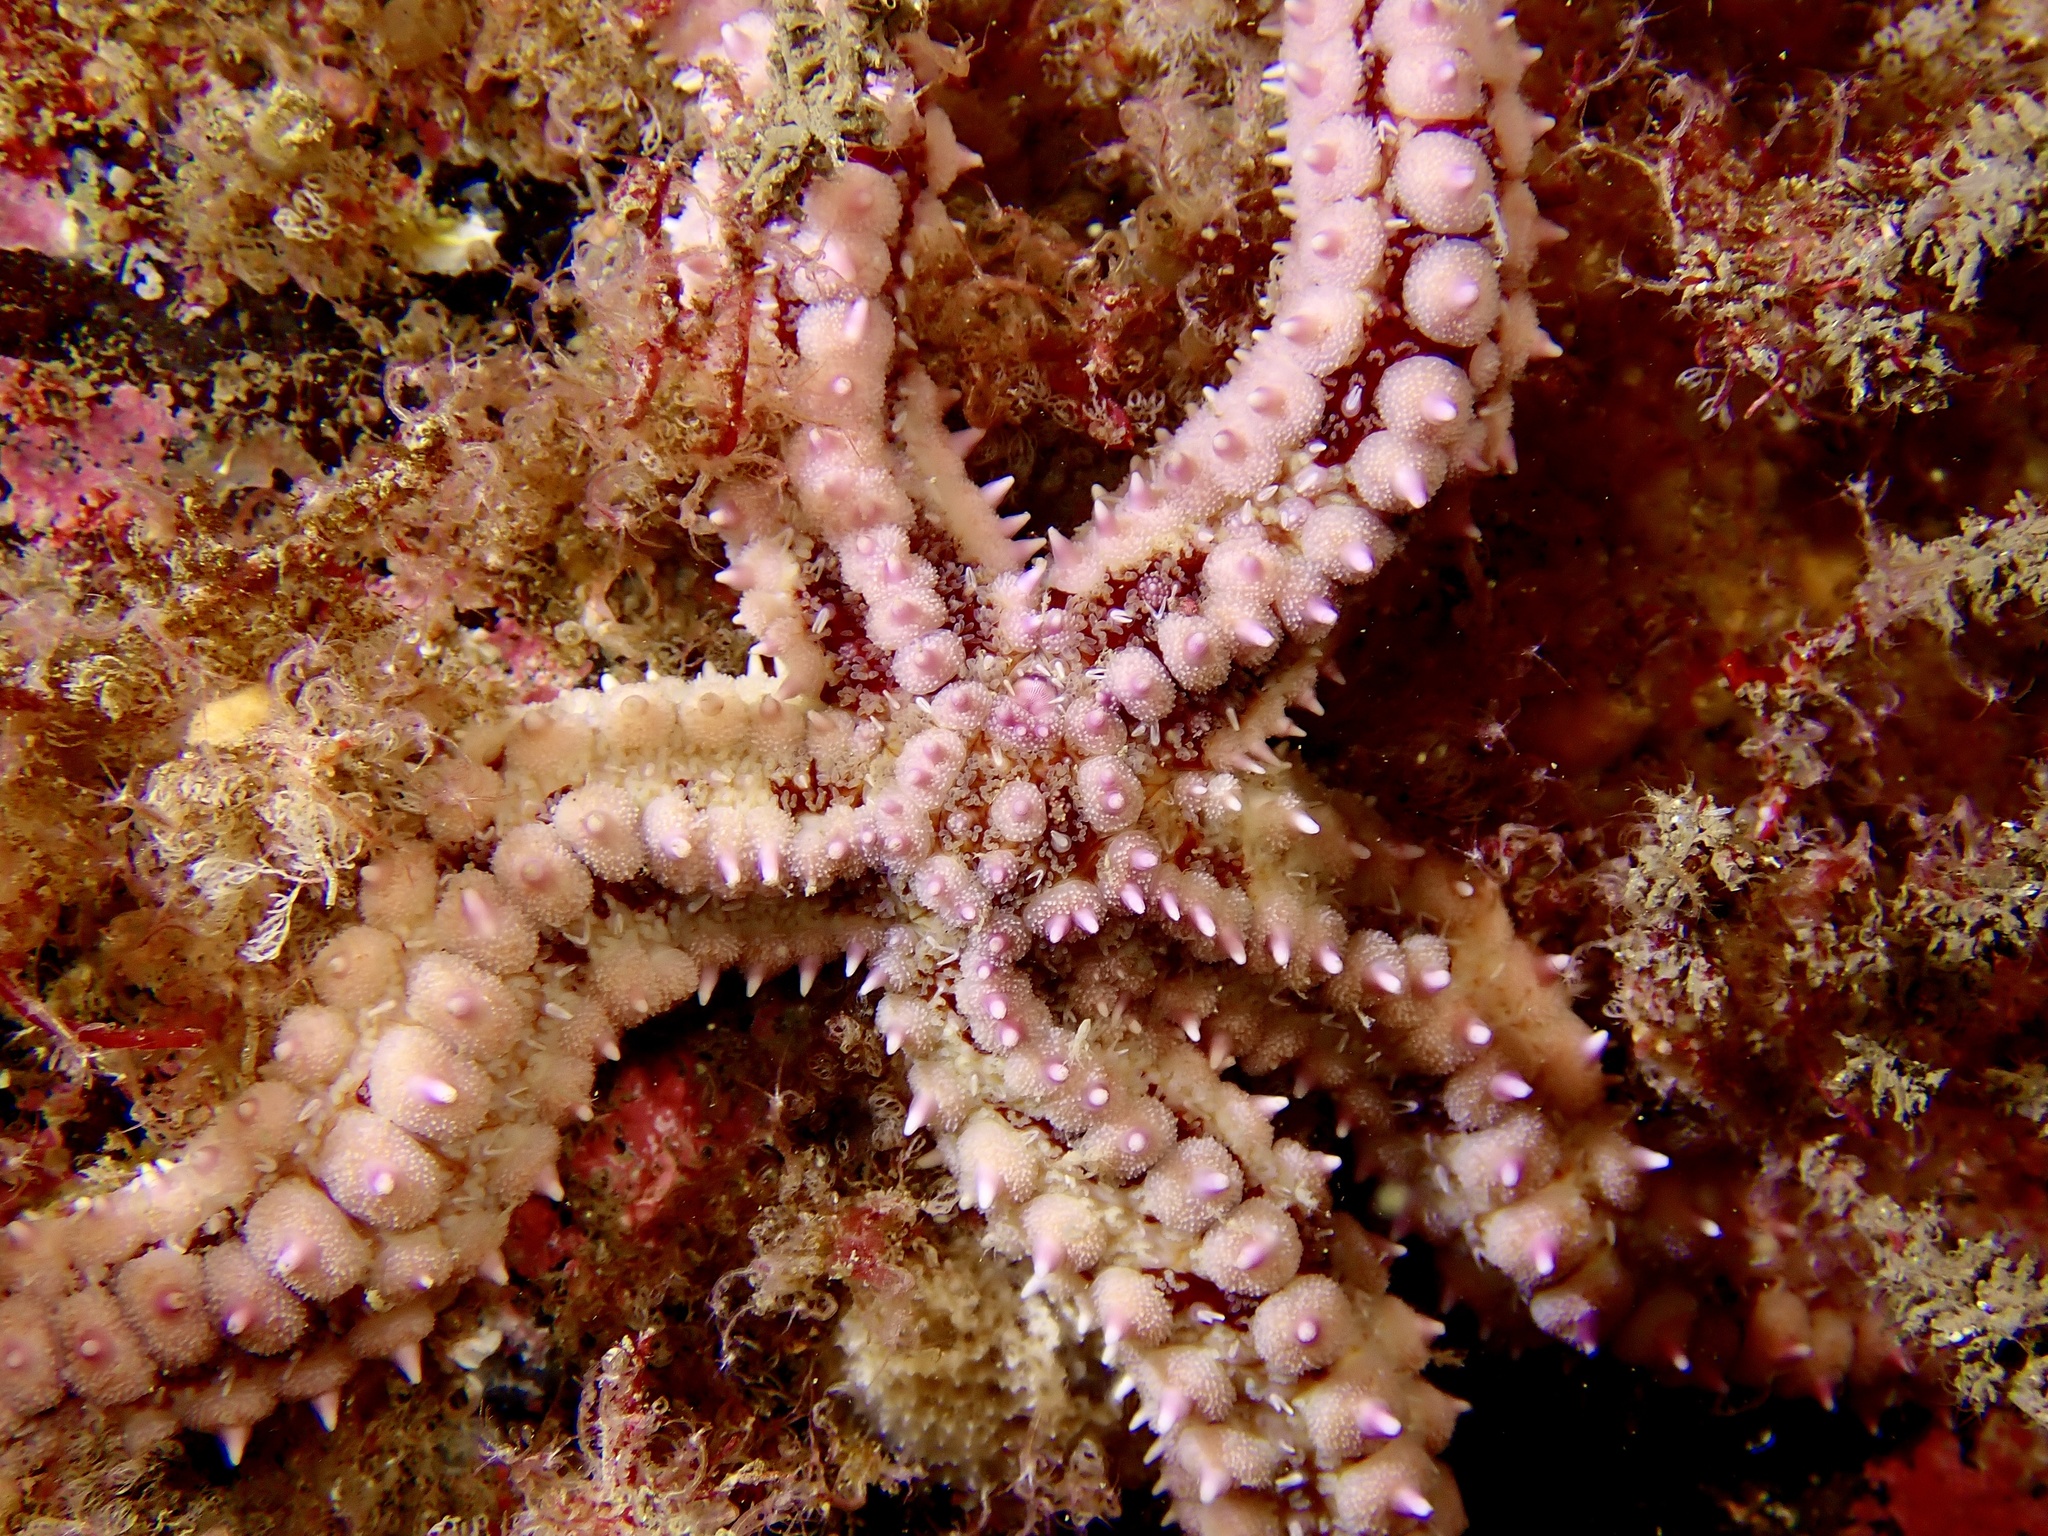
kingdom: Animalia
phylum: Echinodermata
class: Asteroidea
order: Forcipulatida
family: Asteriidae
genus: Marthasterias
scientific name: Marthasterias glacialis
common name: Spiny starfish
